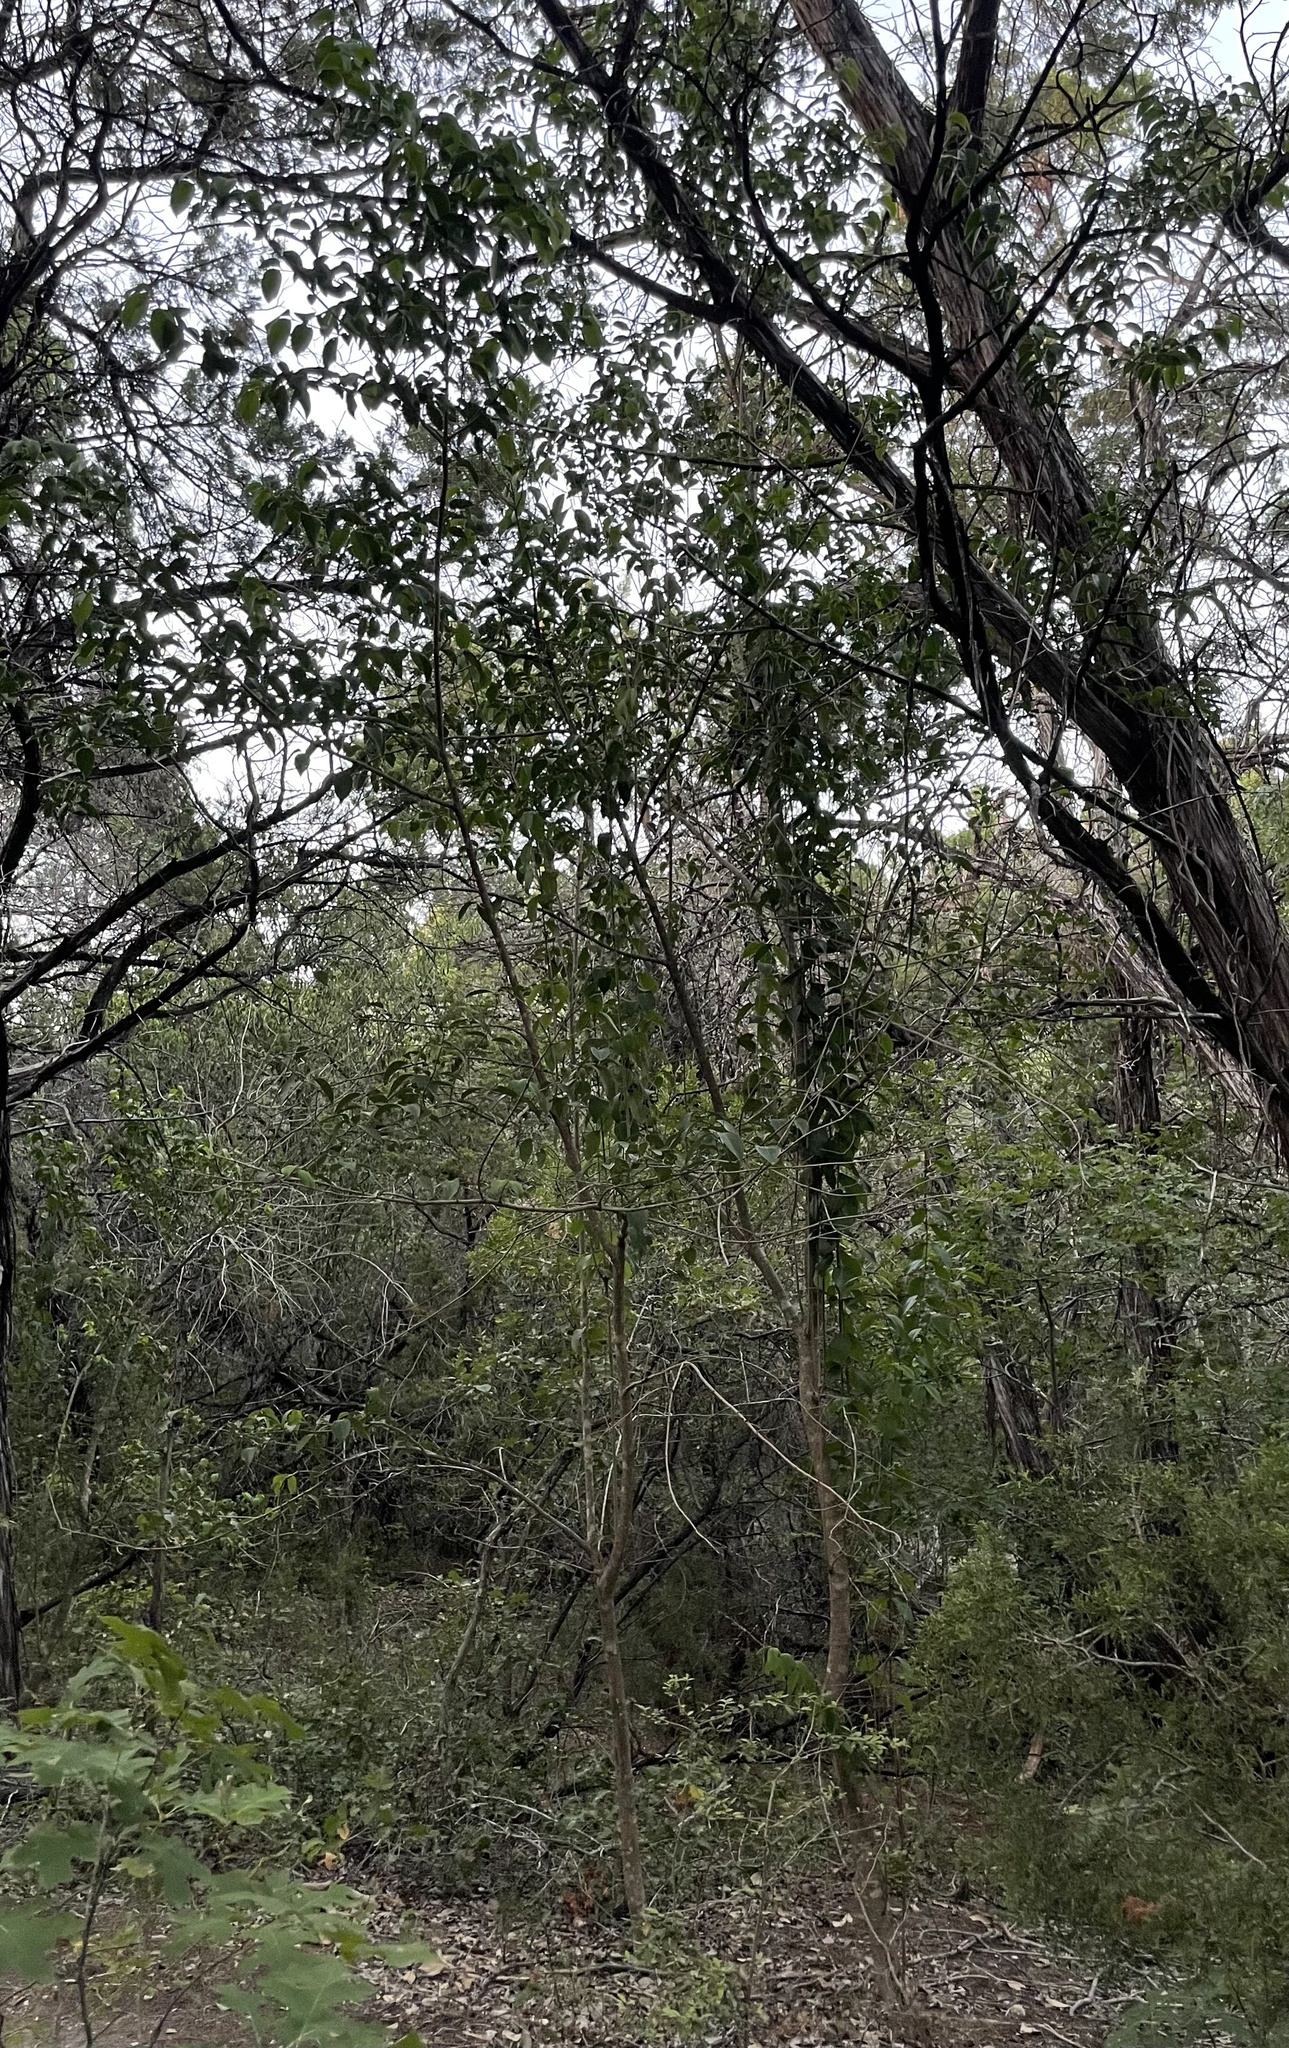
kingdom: Plantae
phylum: Tracheophyta
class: Magnoliopsida
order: Lamiales
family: Oleaceae
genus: Ligustrum
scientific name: Ligustrum lucidum
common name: Glossy privet
